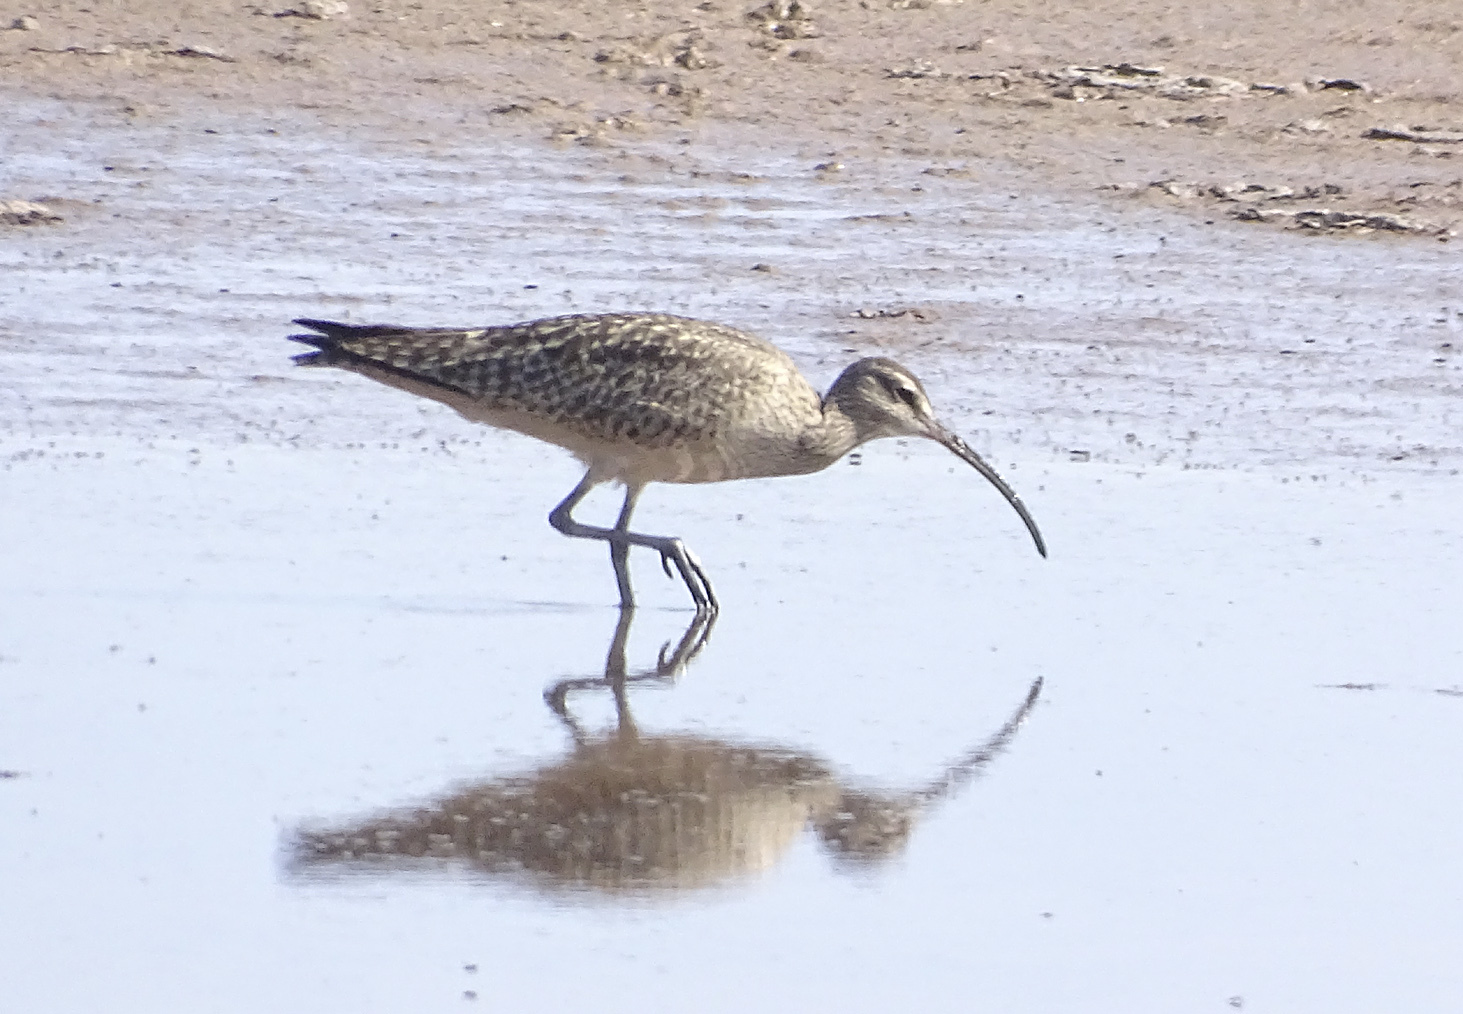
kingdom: Animalia
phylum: Chordata
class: Aves
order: Charadriiformes
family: Scolopacidae
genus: Numenius
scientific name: Numenius phaeopus
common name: Whimbrel
